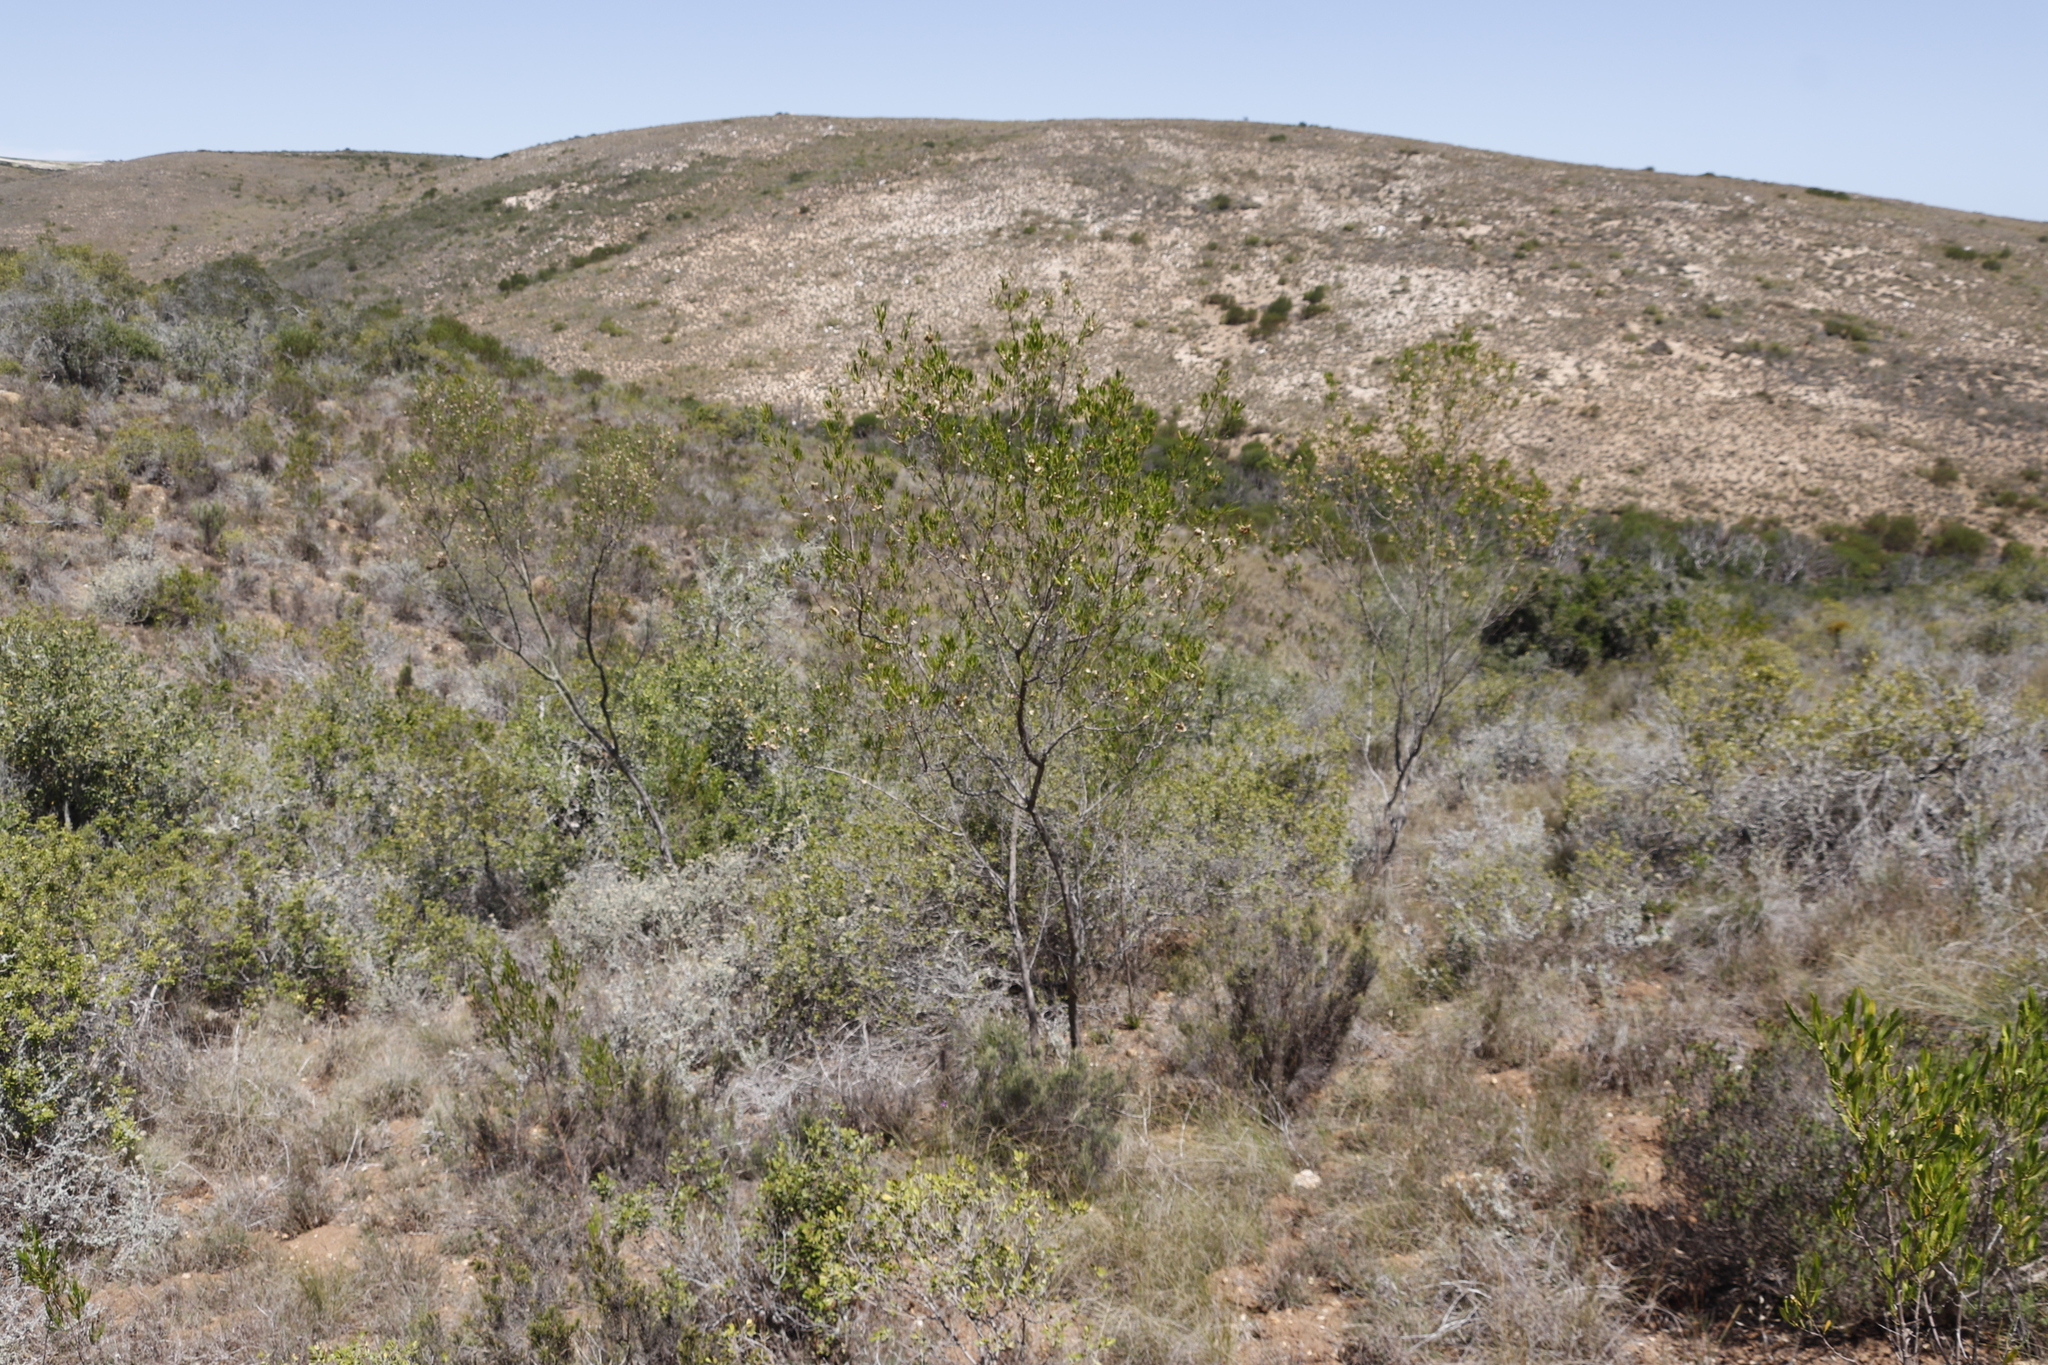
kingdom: Plantae
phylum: Tracheophyta
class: Magnoliopsida
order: Sapindales
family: Sapindaceae
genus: Dodonaea
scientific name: Dodonaea viscosa
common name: Hopbush
